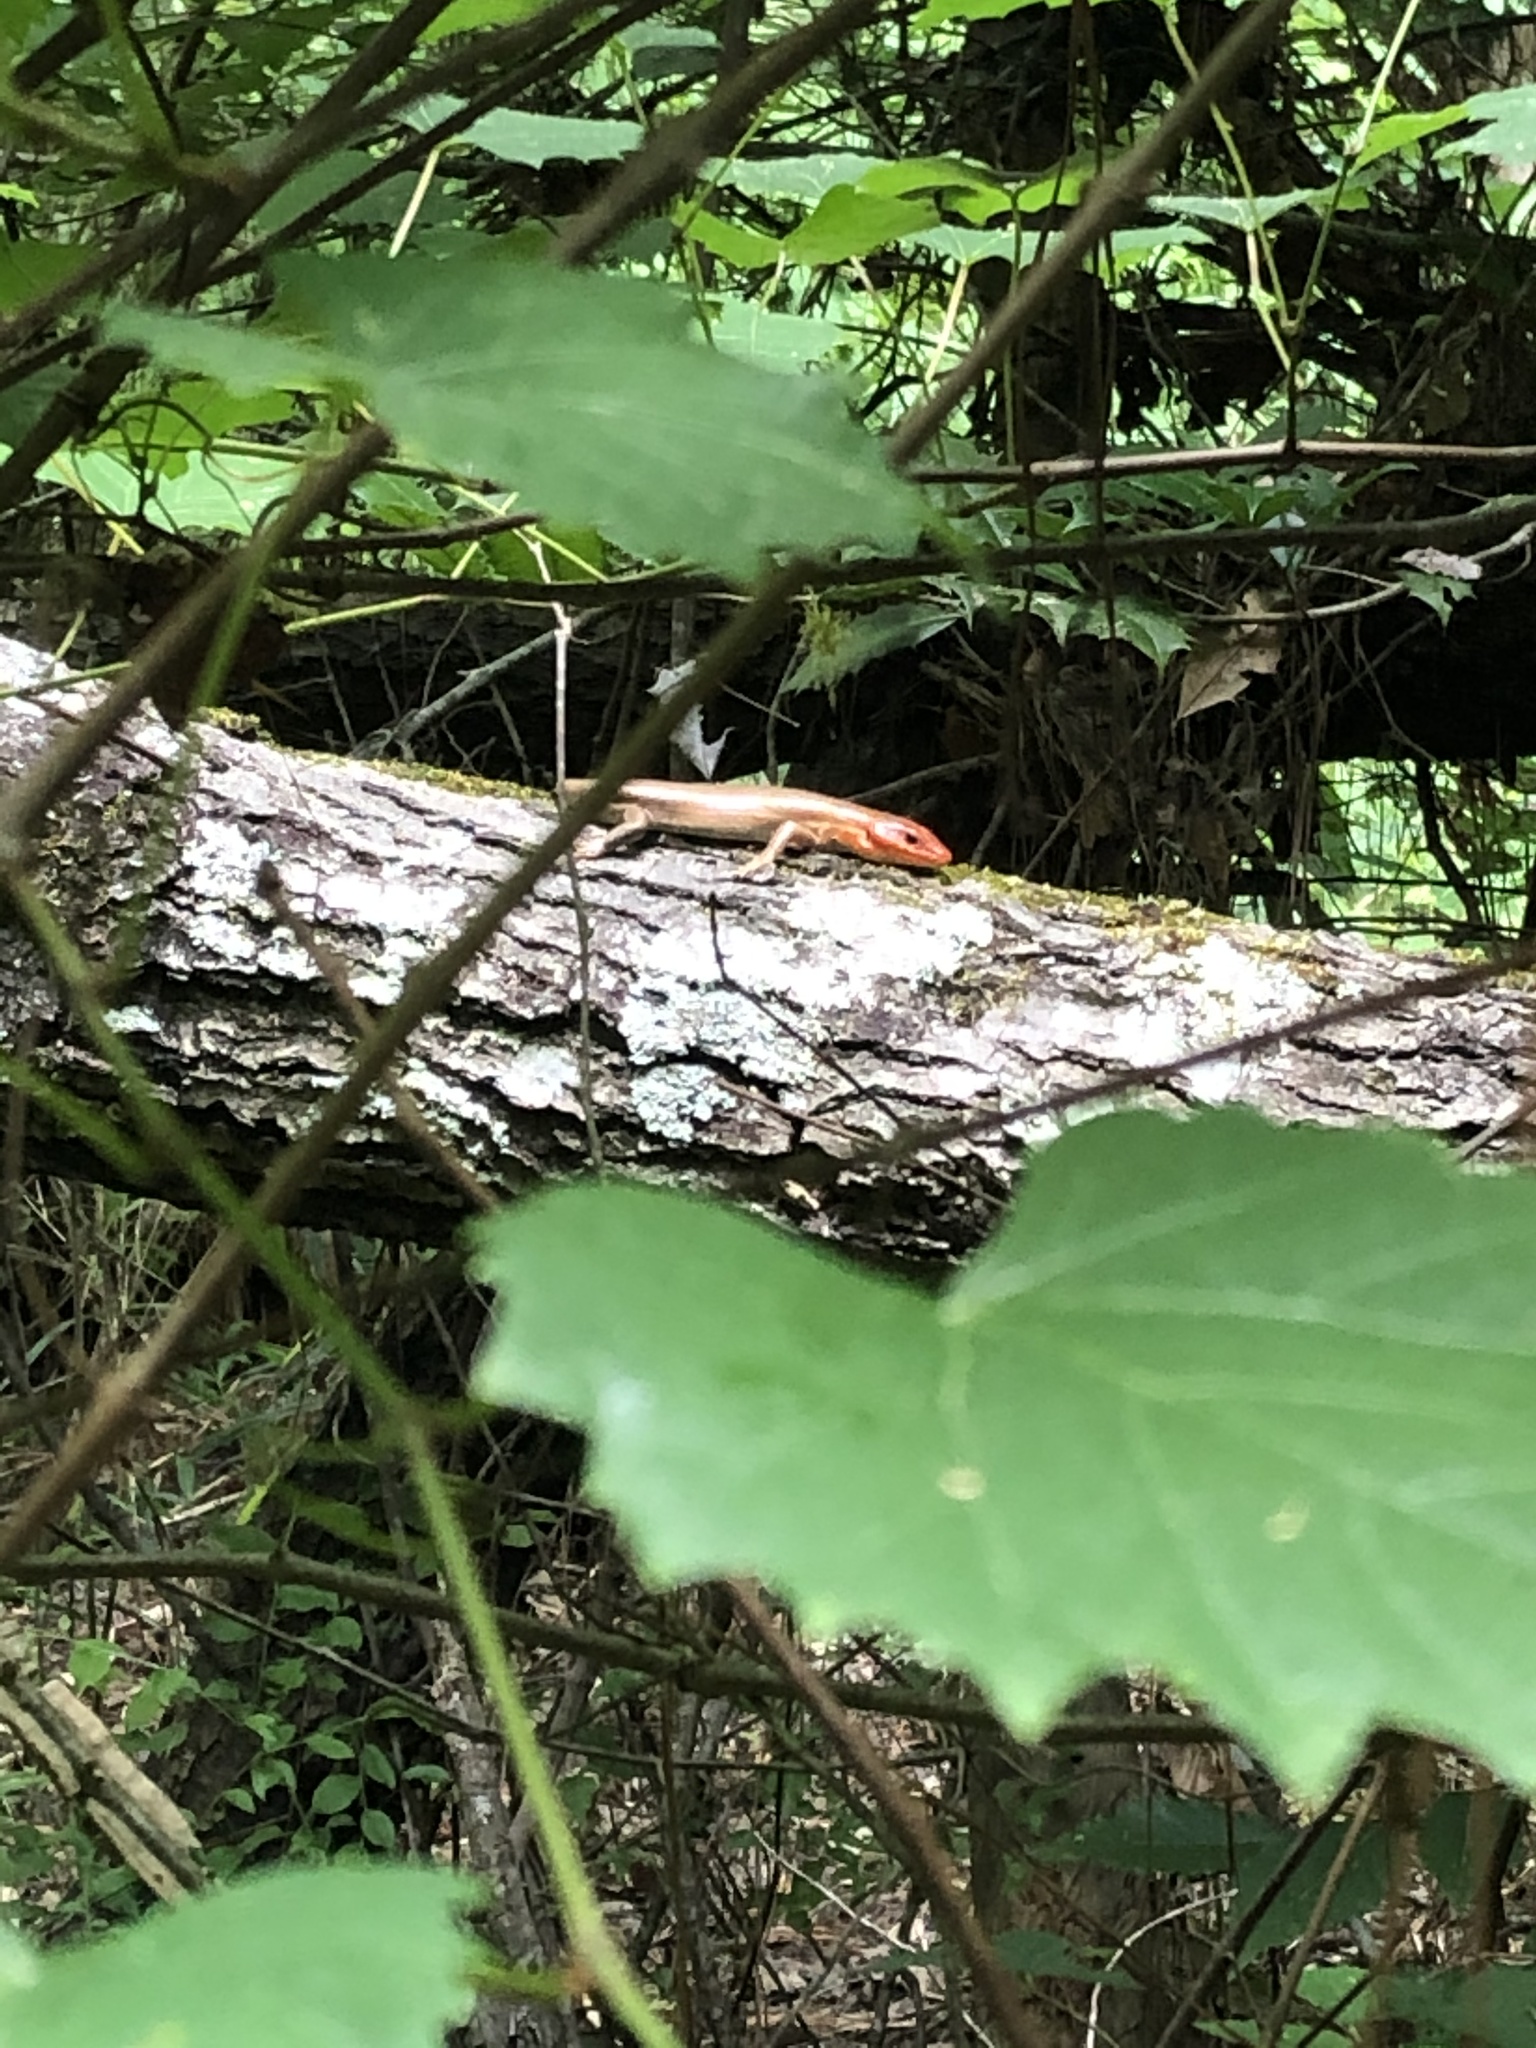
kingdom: Animalia
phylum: Chordata
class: Squamata
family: Scincidae
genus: Plestiodon
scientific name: Plestiodon laticeps
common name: Broadhead skink
